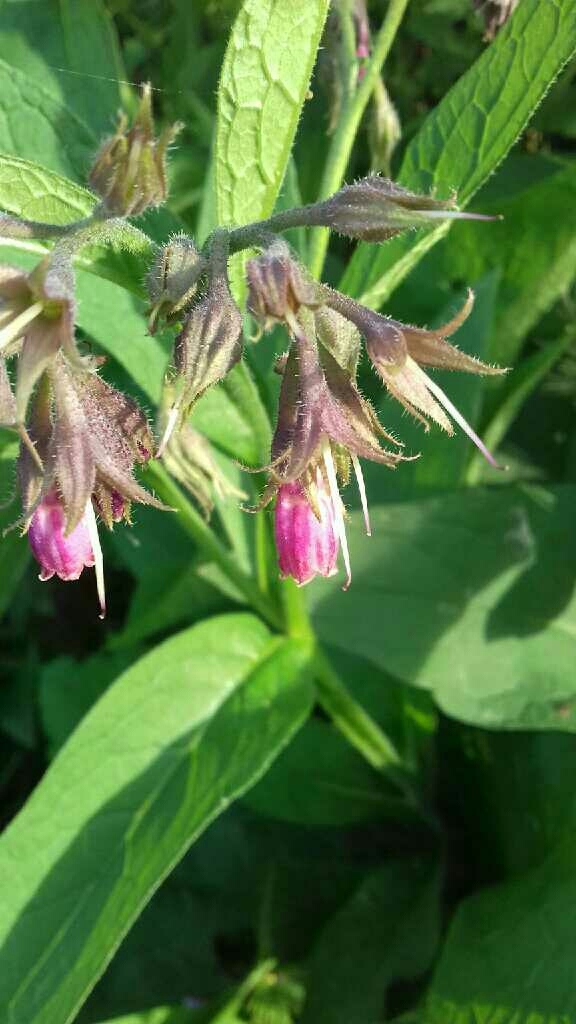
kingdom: Plantae
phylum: Tracheophyta
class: Magnoliopsida
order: Boraginales
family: Boraginaceae
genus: Symphytum
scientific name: Symphytum officinale
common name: Common comfrey
